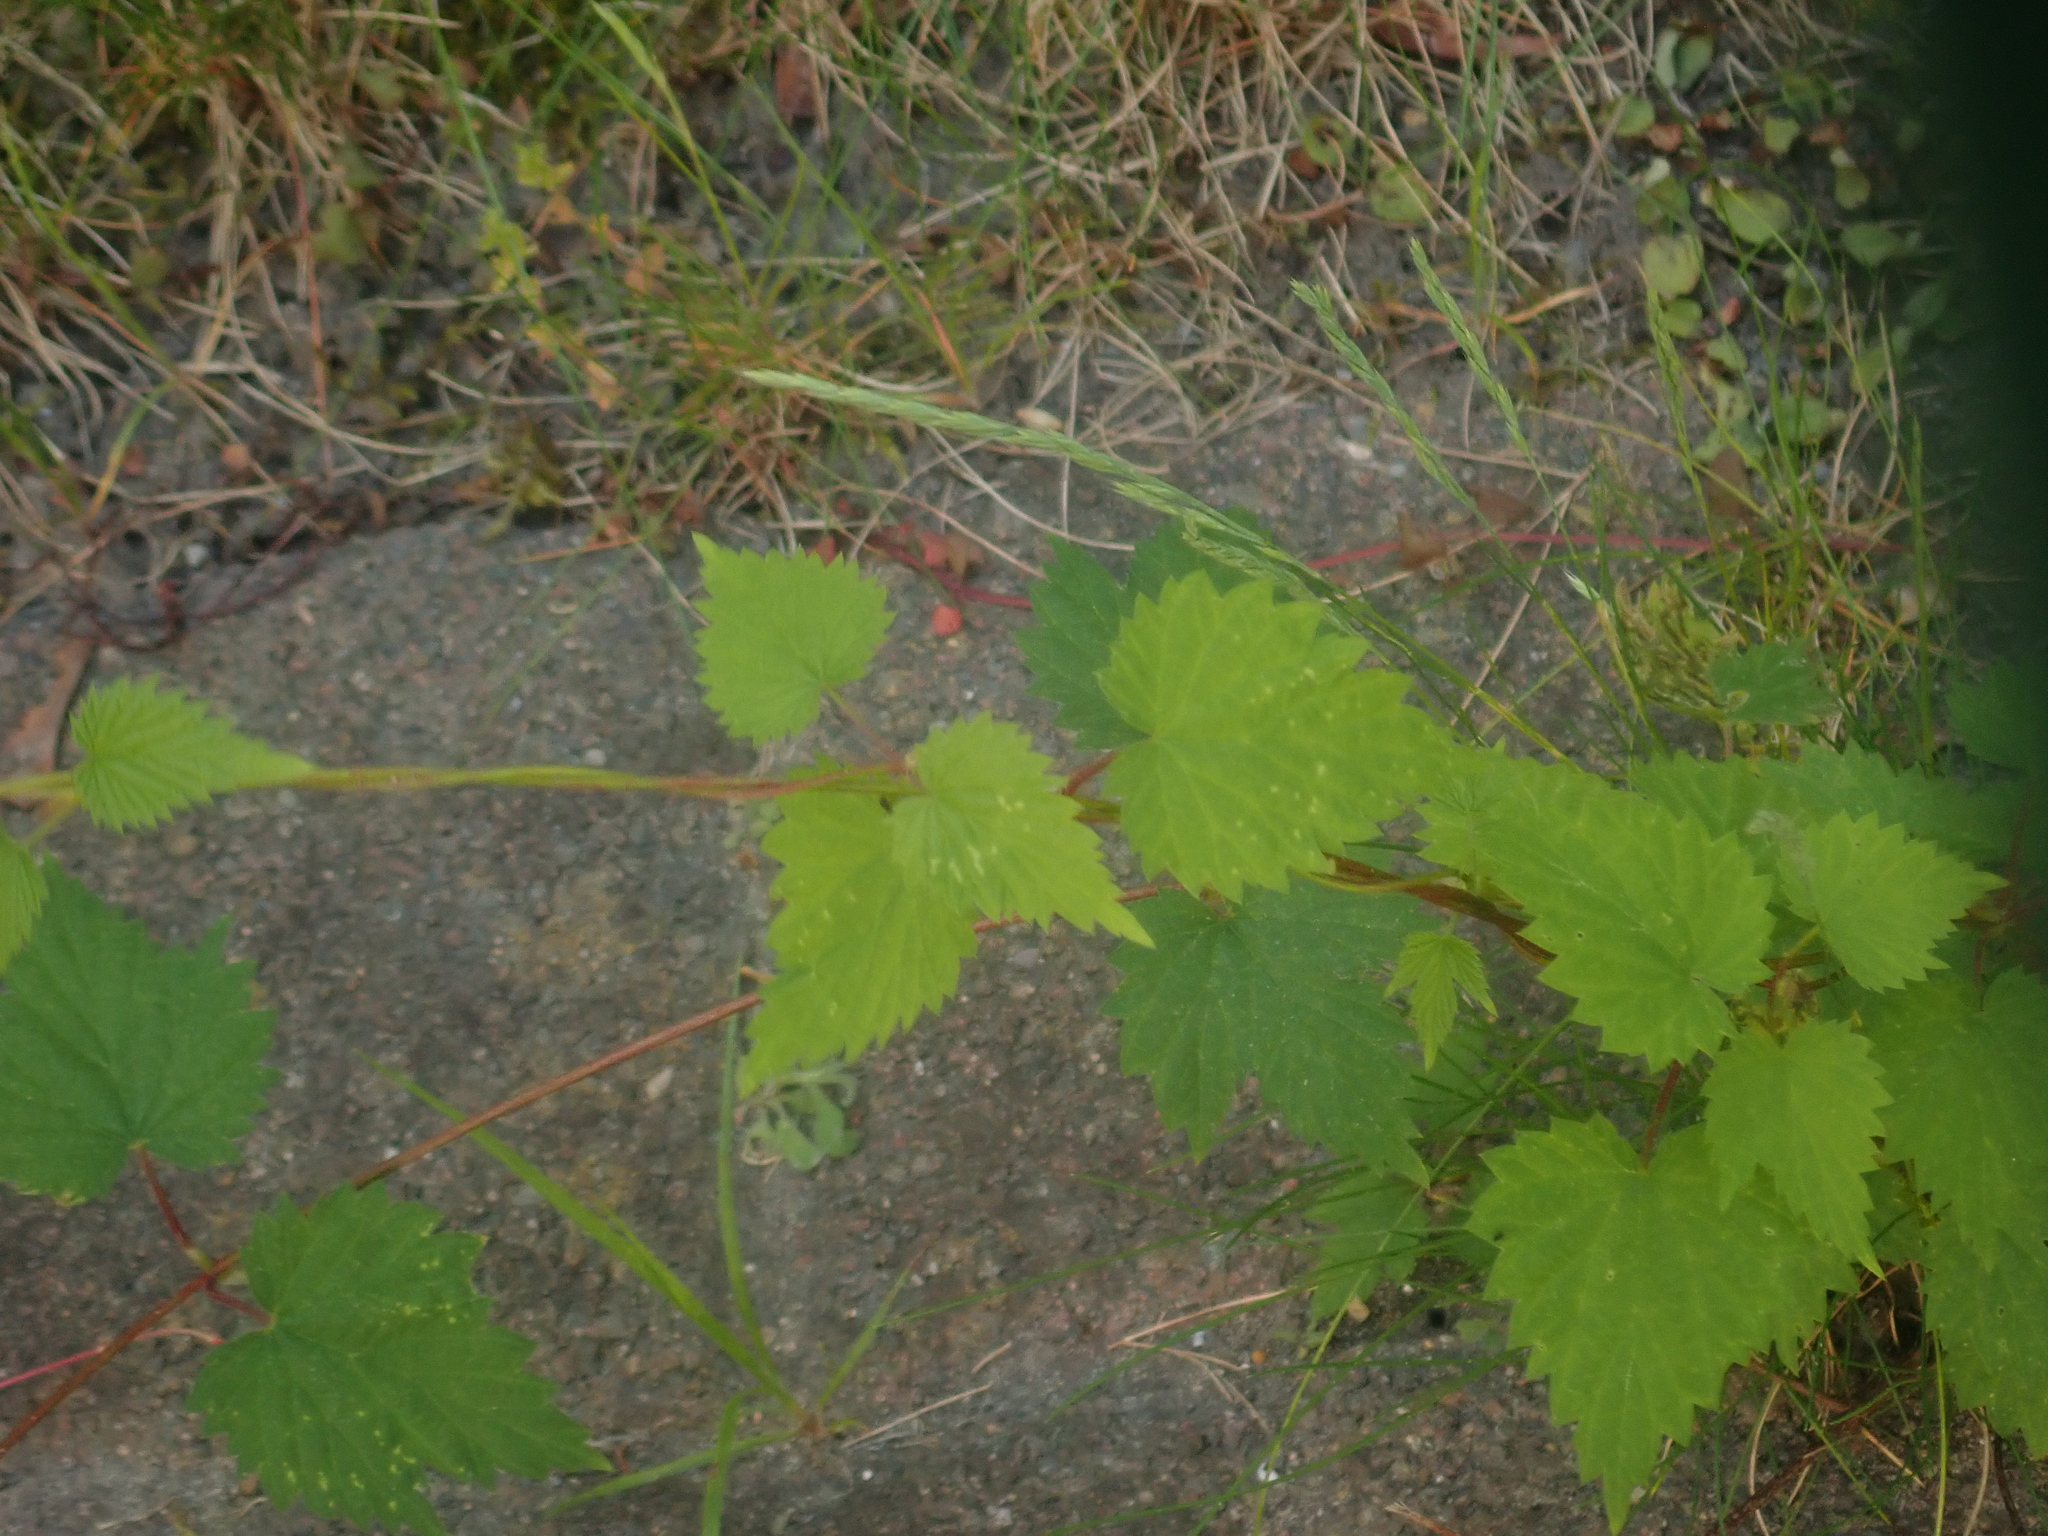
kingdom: Plantae
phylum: Tracheophyta
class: Magnoliopsida
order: Rosales
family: Cannabaceae
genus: Humulus
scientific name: Humulus lupulus
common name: Hop
